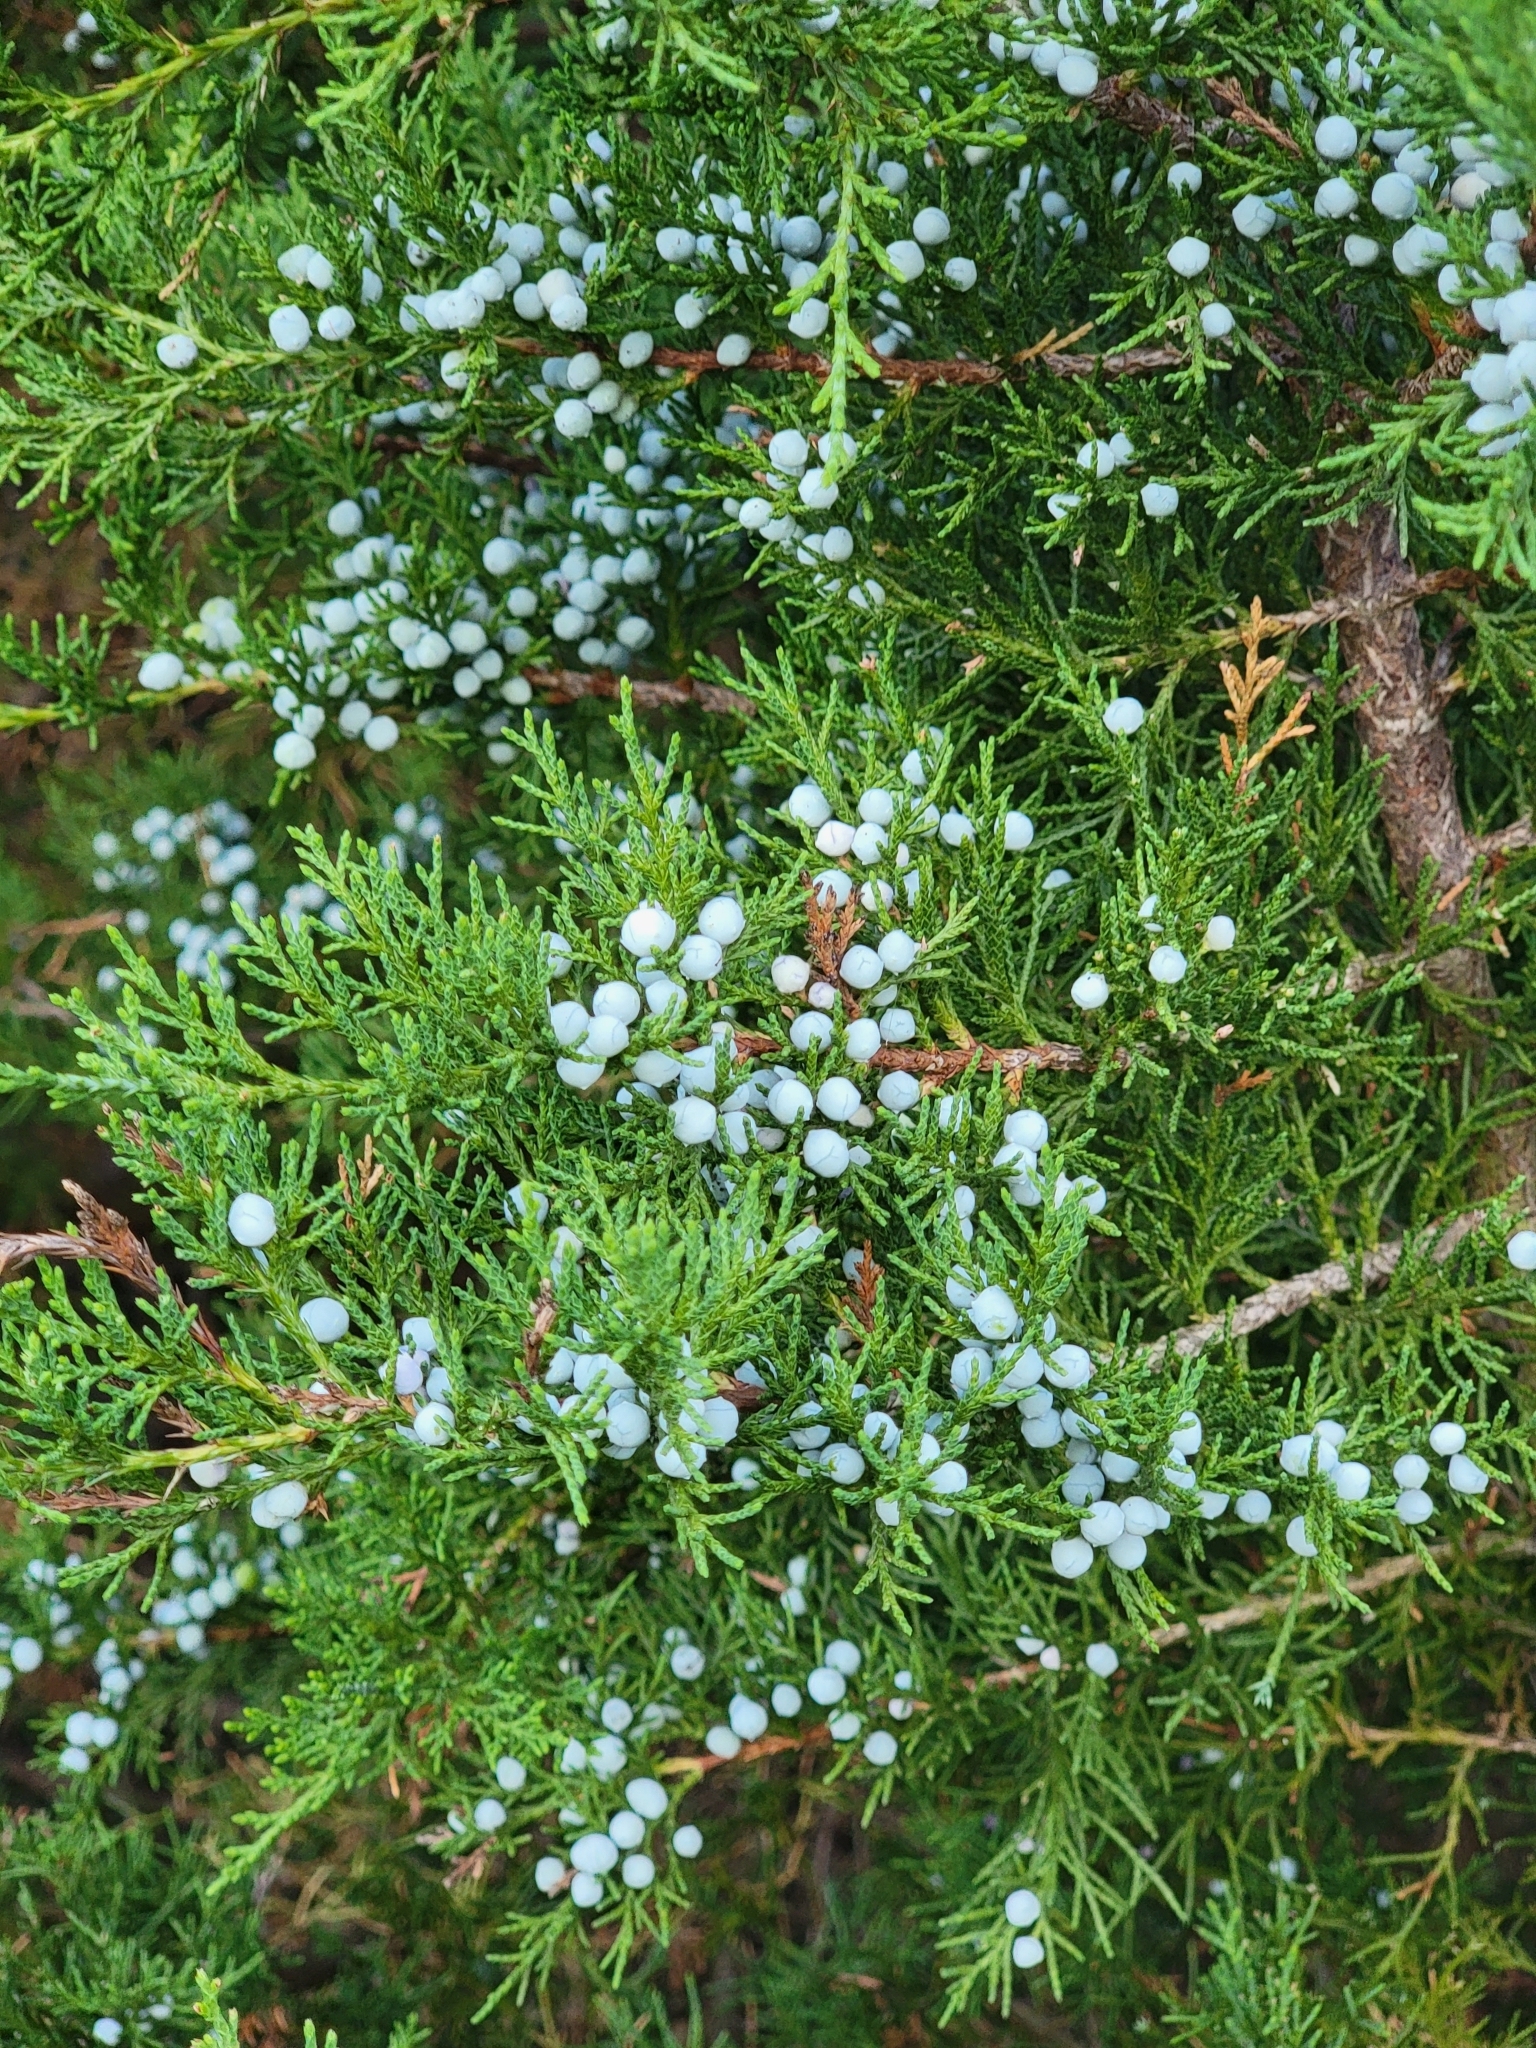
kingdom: Plantae
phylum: Tracheophyta
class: Pinopsida
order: Pinales
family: Cupressaceae
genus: Juniperus
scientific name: Juniperus virginiana
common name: Red juniper
